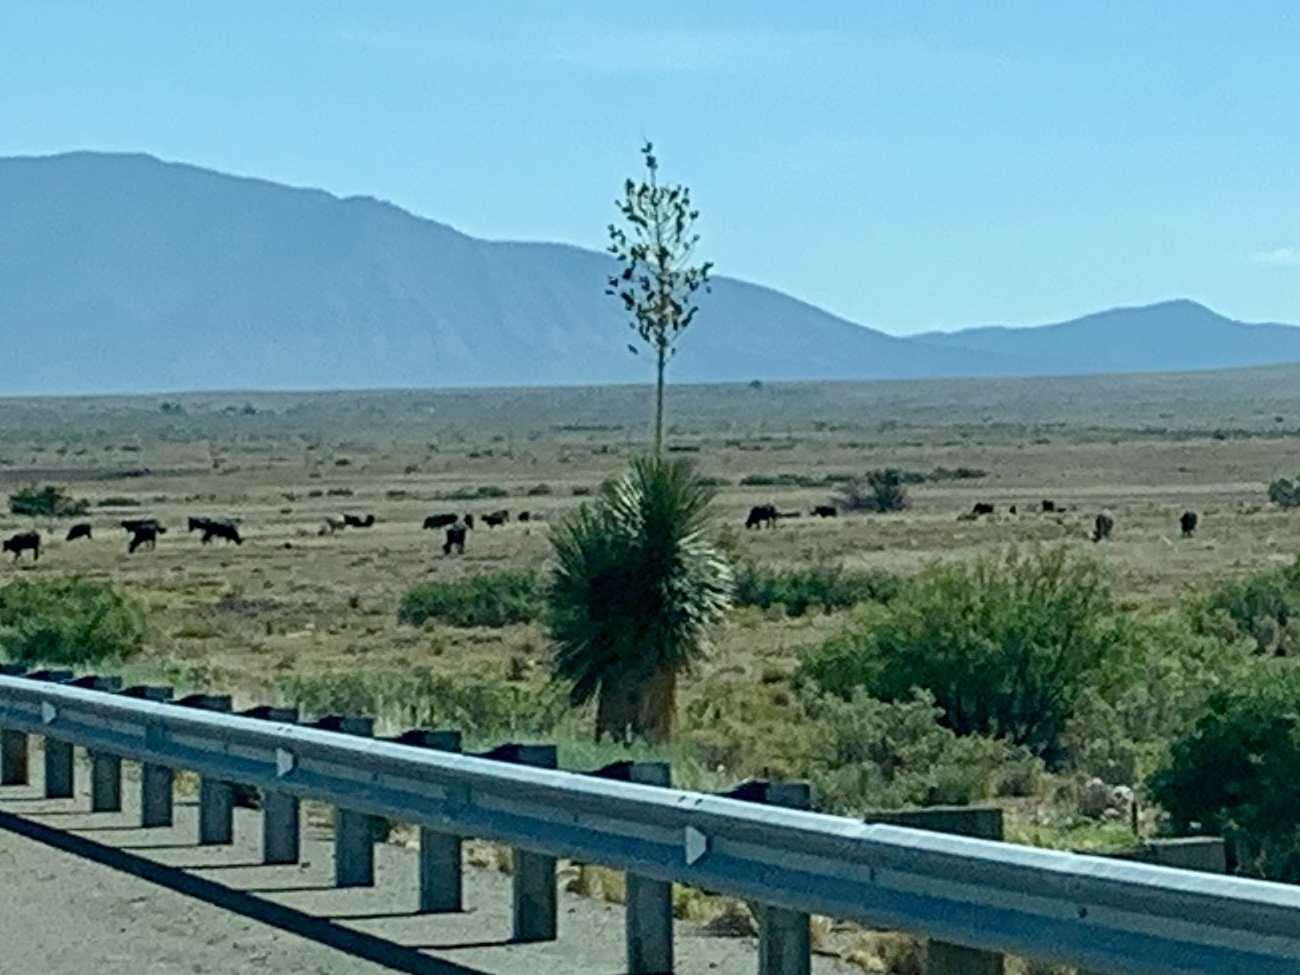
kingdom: Plantae
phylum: Tracheophyta
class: Liliopsida
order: Asparagales
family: Asparagaceae
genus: Yucca
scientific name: Yucca elata
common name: Palmella
